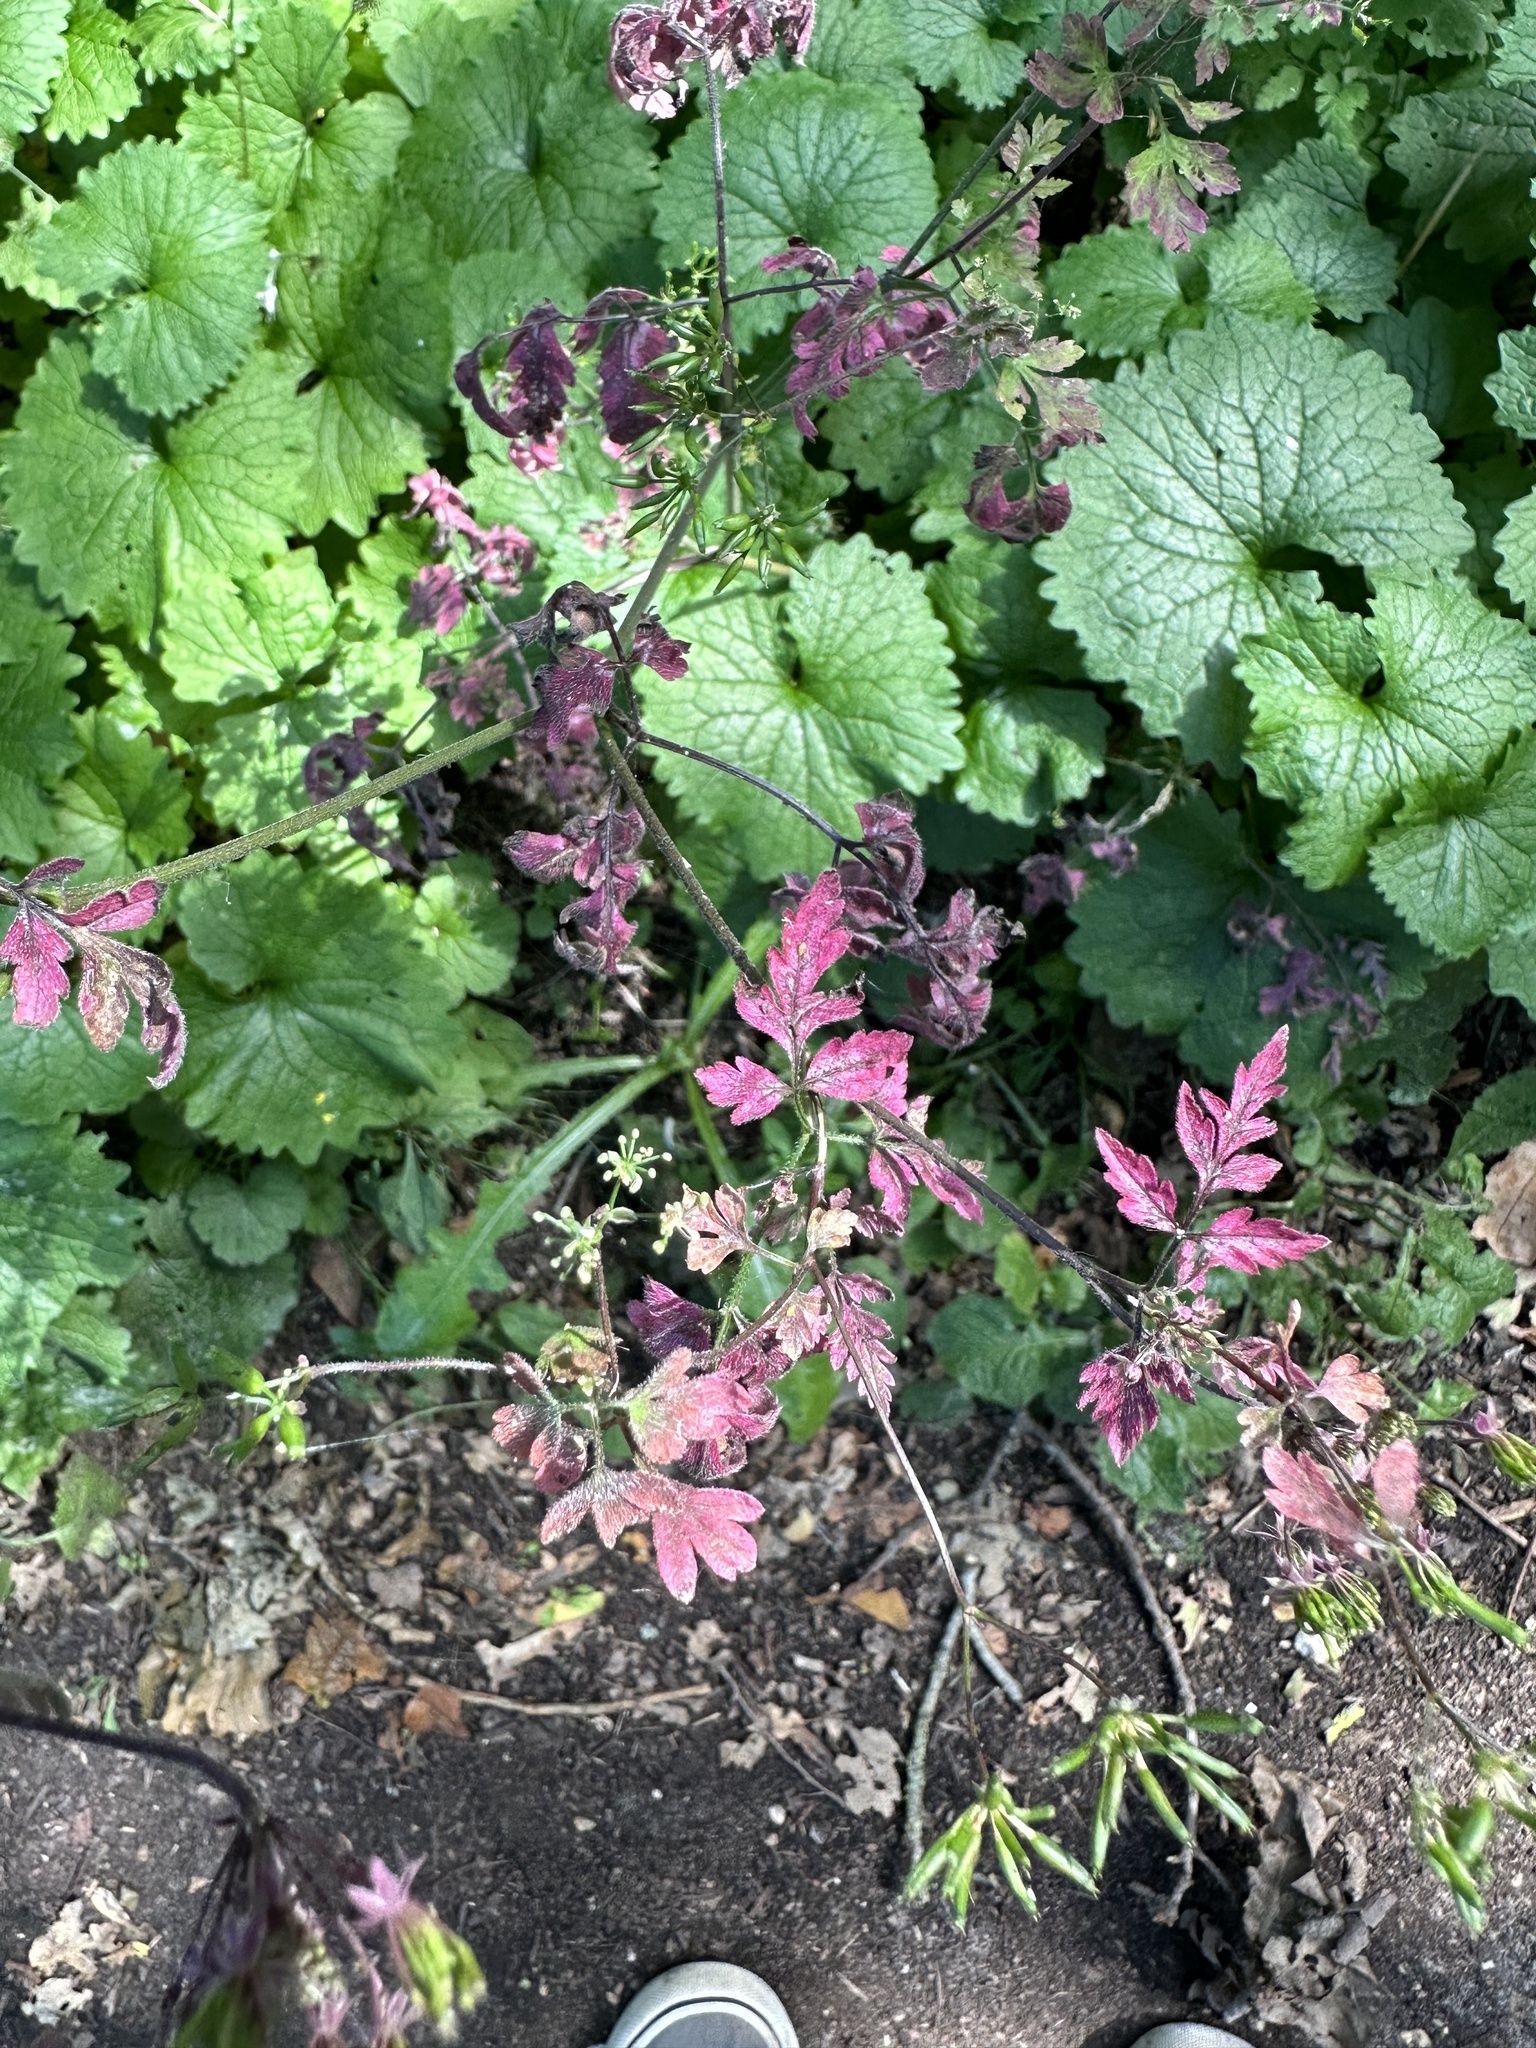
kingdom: Plantae
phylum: Tracheophyta
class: Magnoliopsida
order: Brassicales
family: Brassicaceae
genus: Alliaria
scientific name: Alliaria petiolata
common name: Garlic mustard
